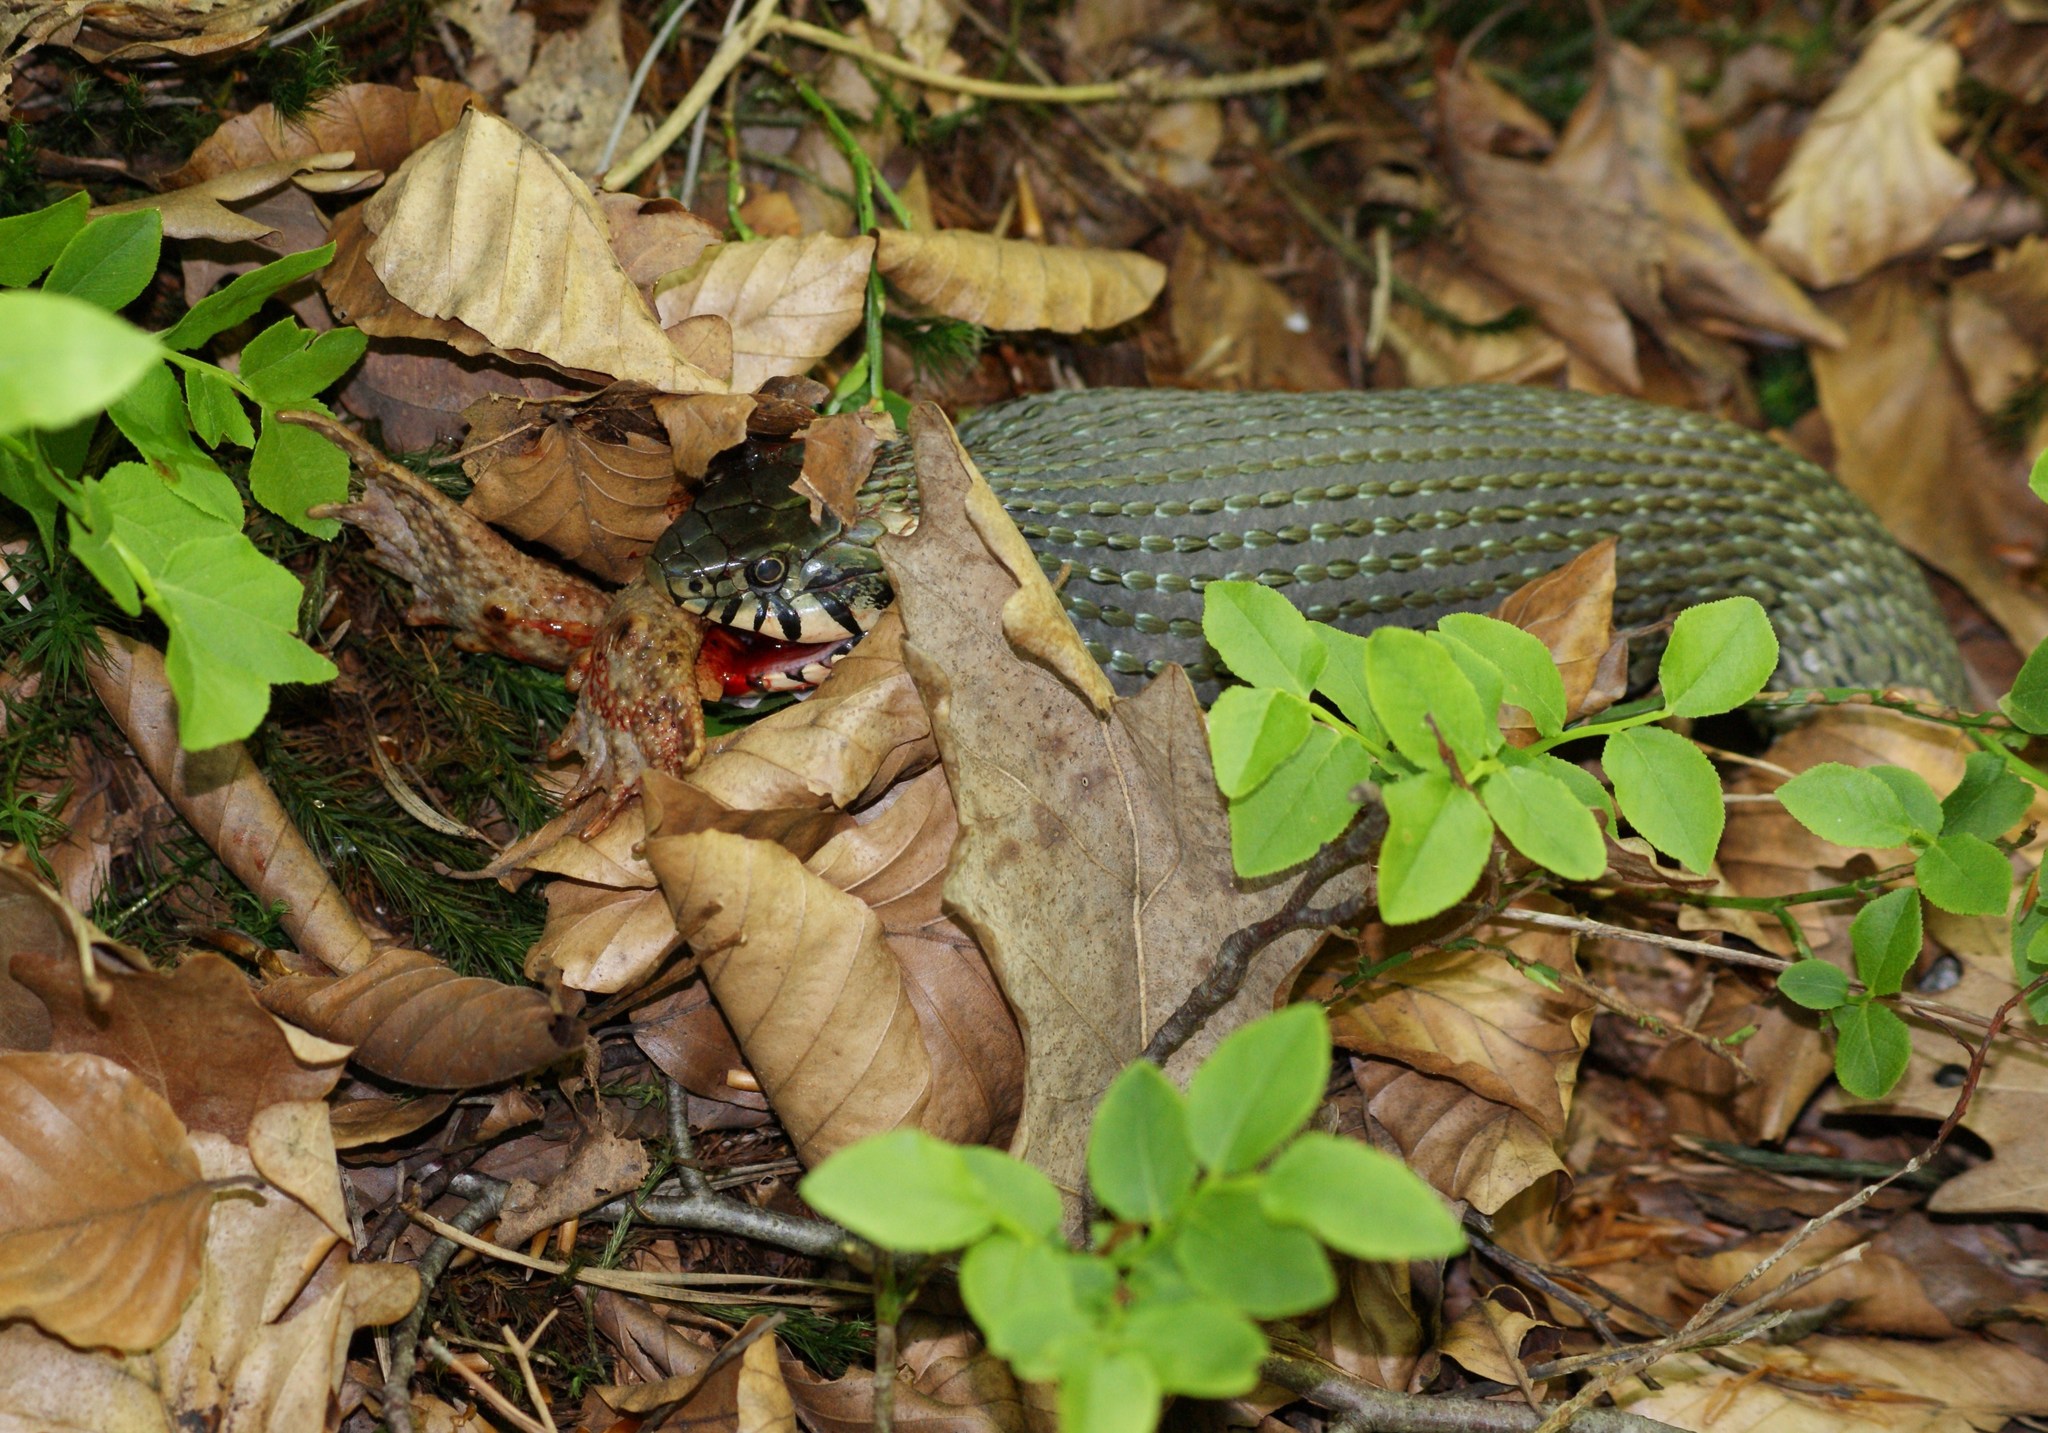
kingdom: Animalia
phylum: Chordata
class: Squamata
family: Colubridae
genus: Natrix
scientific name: Natrix natrix
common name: Grass snake
